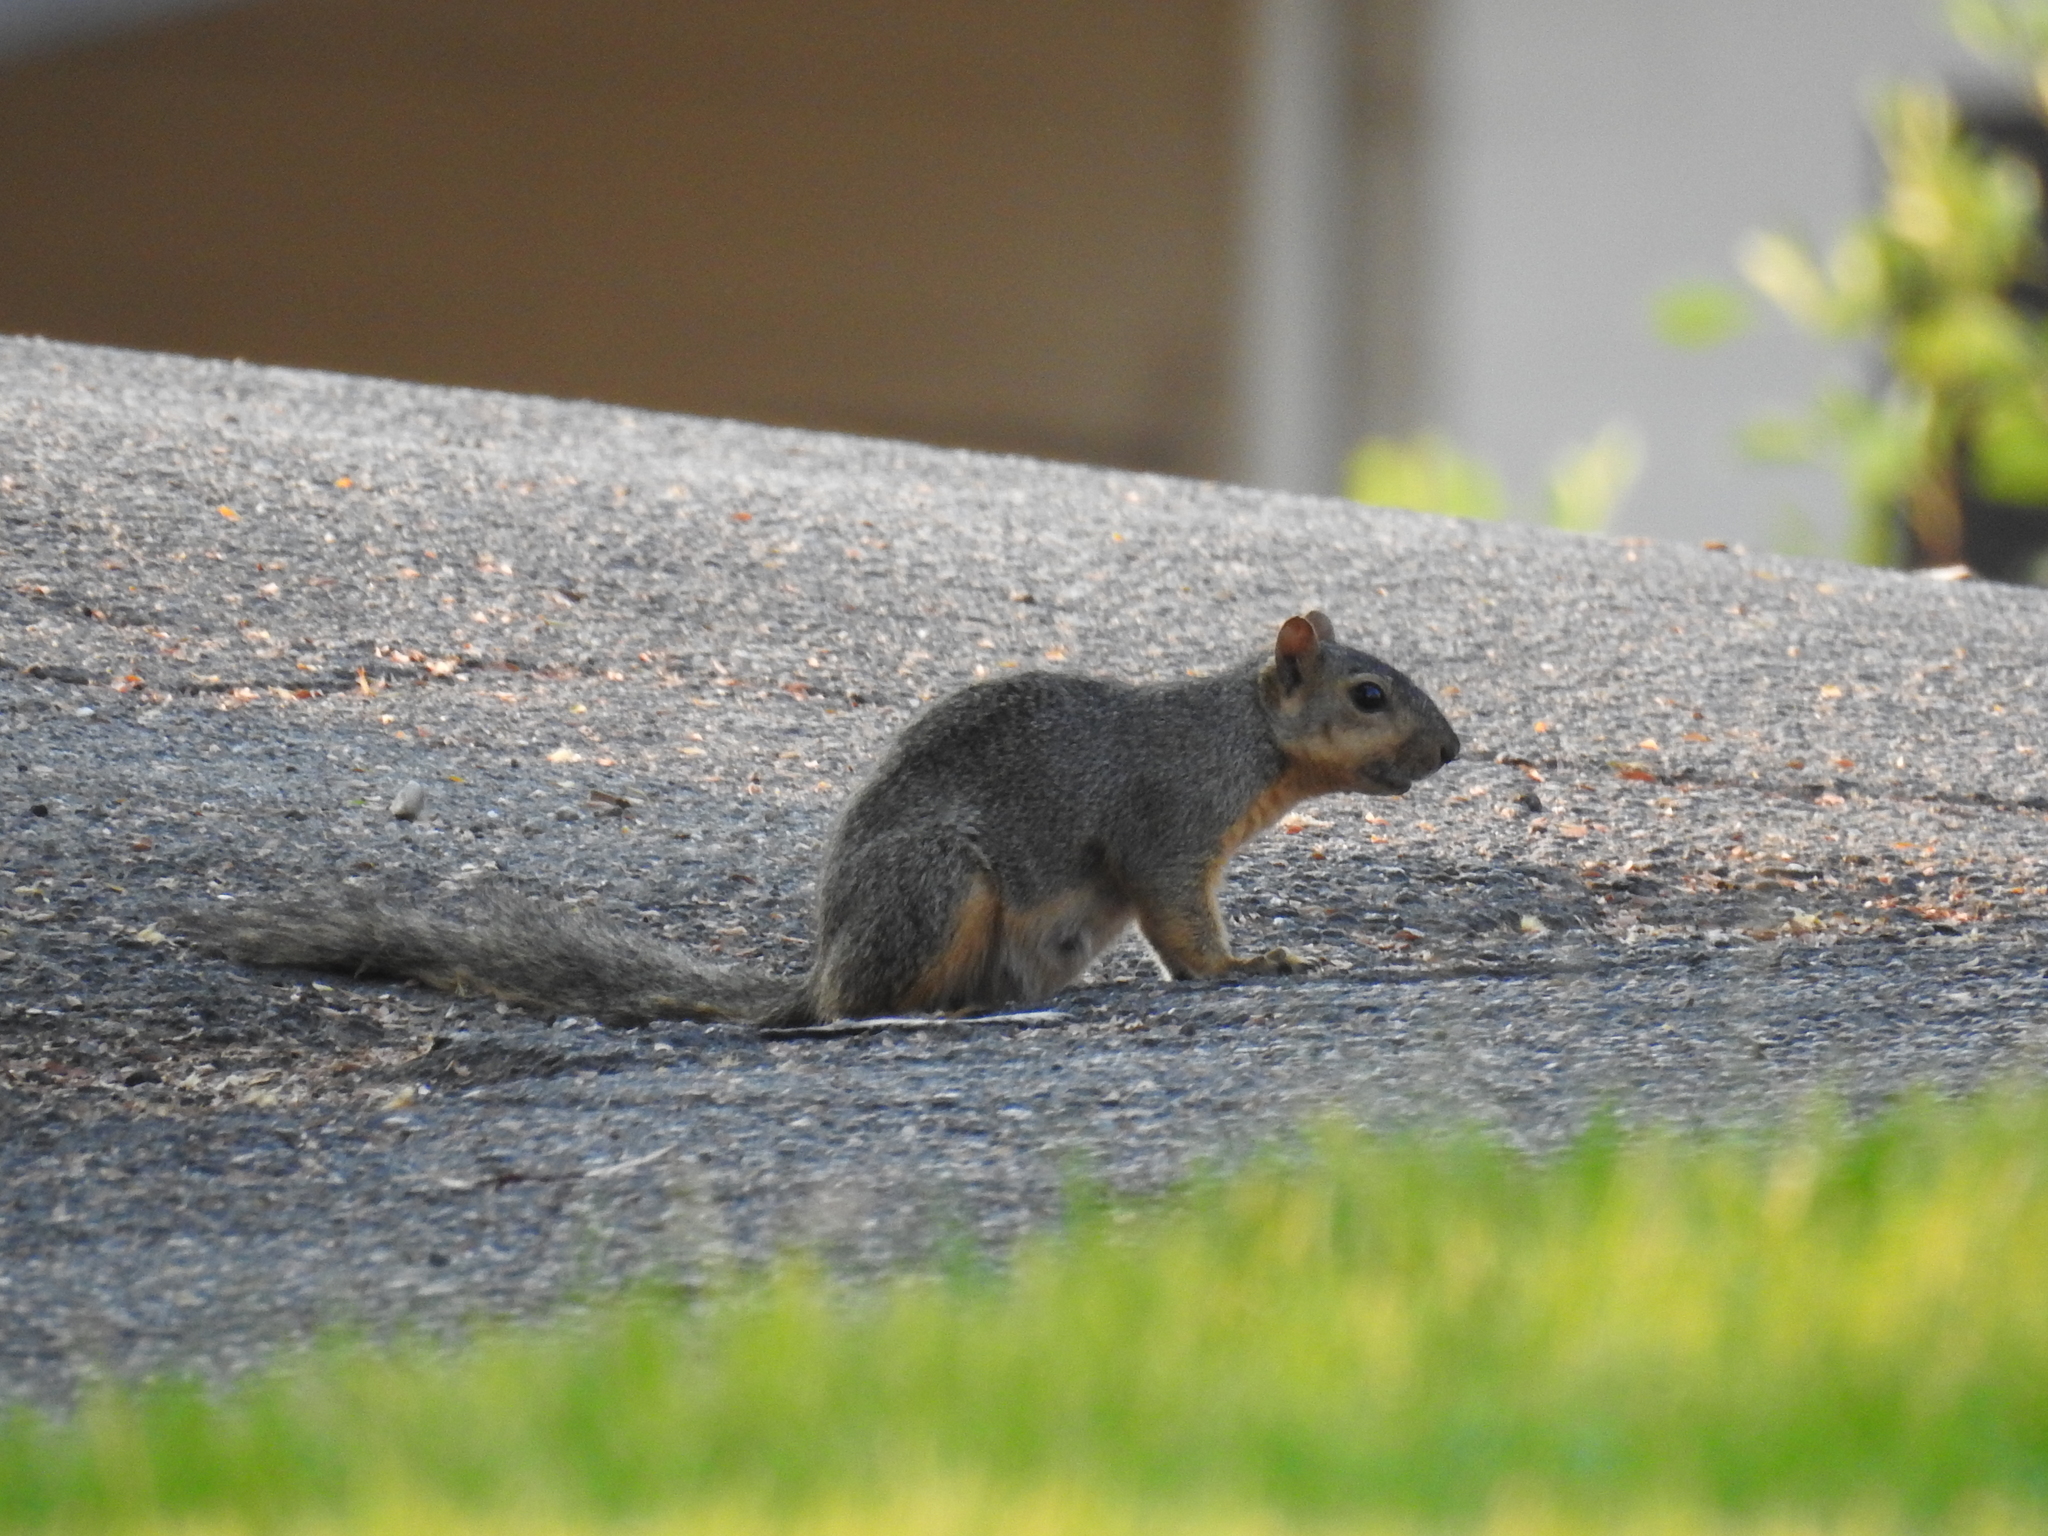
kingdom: Animalia
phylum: Chordata
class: Mammalia
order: Rodentia
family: Sciuridae
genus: Sciurus
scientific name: Sciurus niger
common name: Fox squirrel
